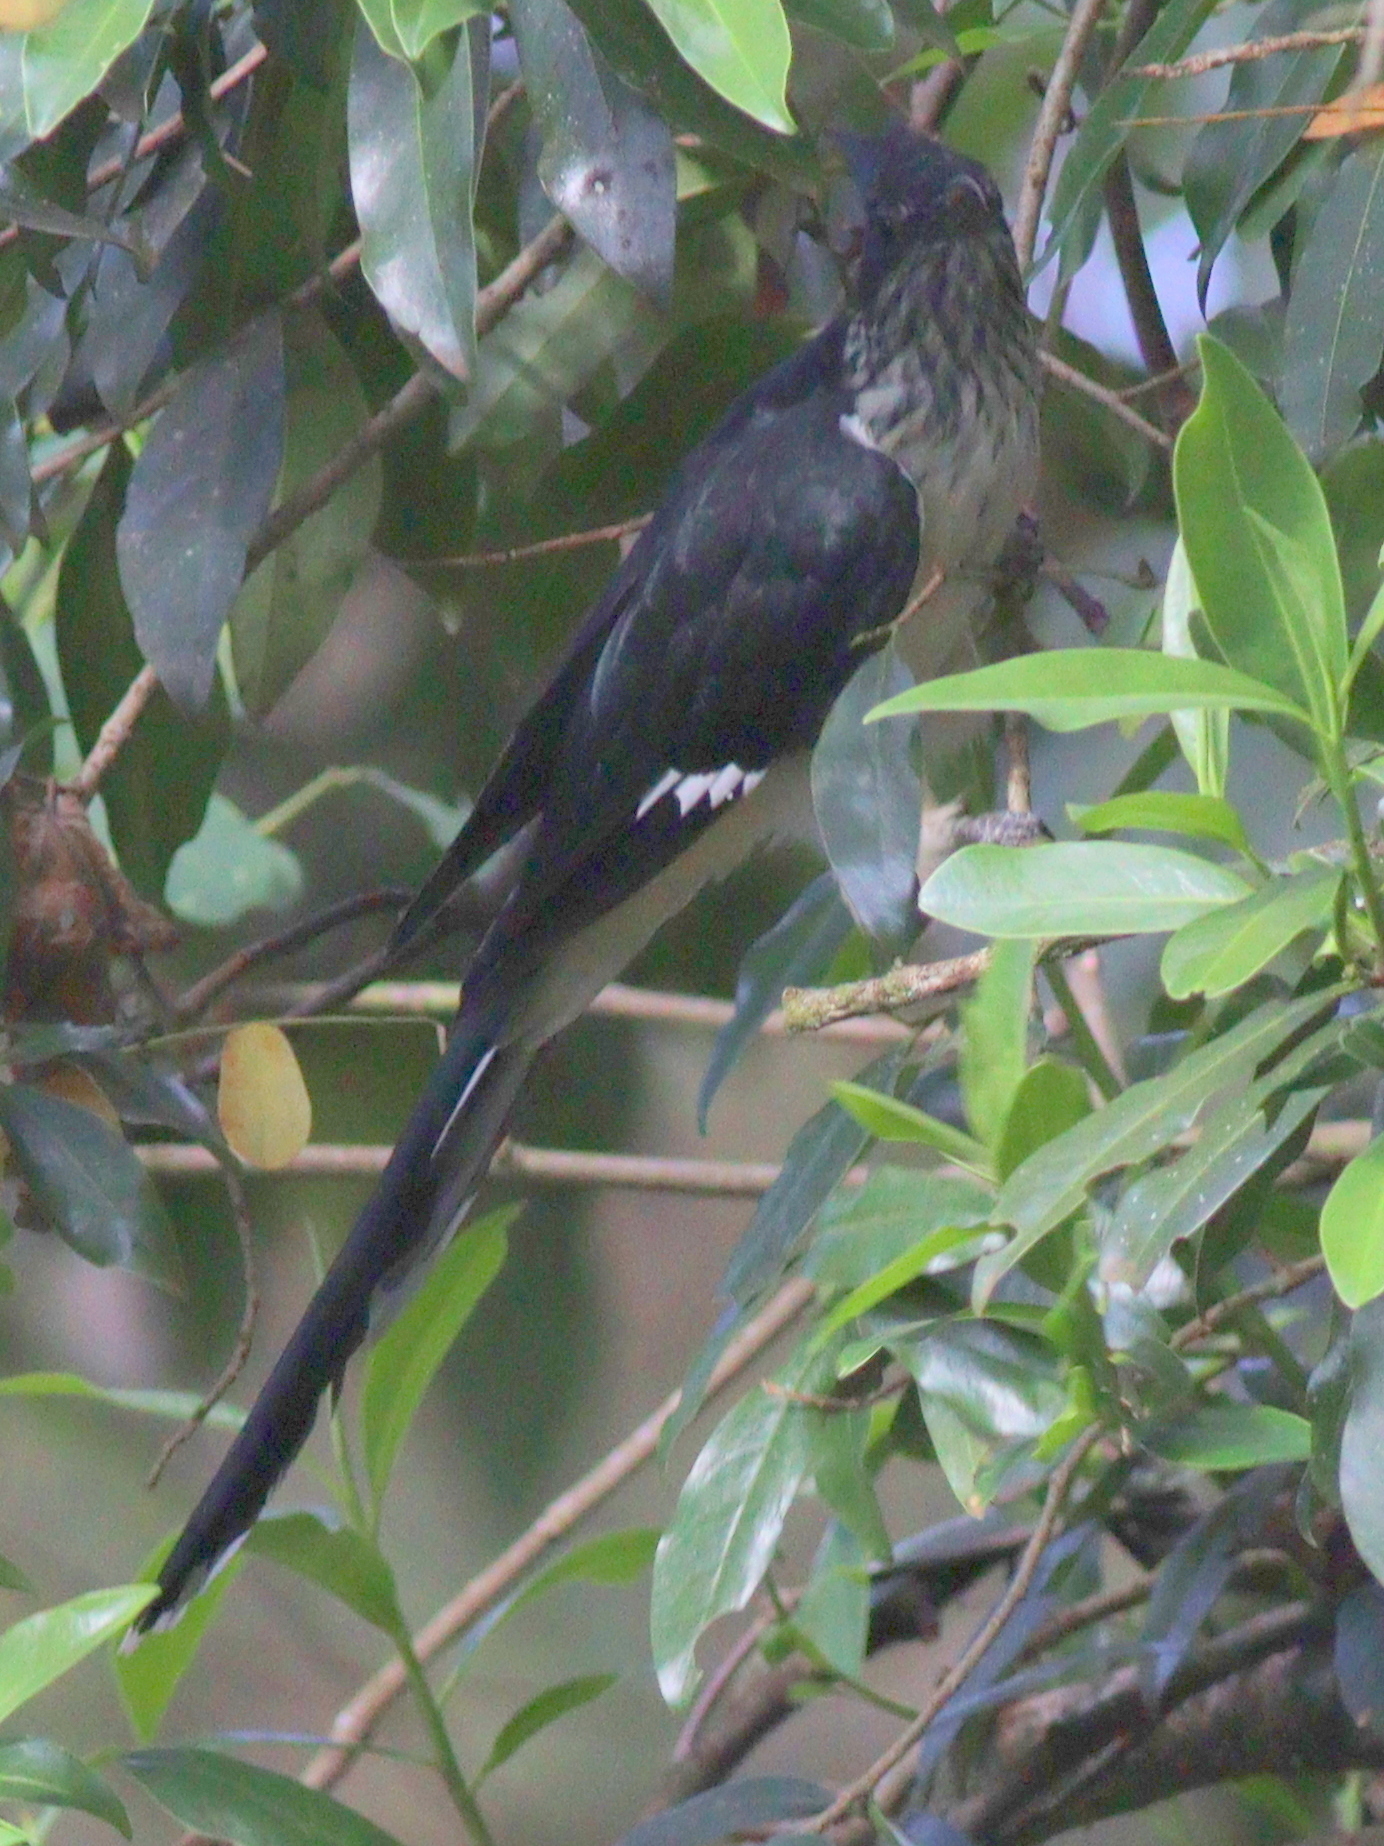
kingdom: Animalia
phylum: Chordata
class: Aves
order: Cuculiformes
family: Cuculidae
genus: Clamator
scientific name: Clamator levaillantii
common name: Levaillant's cuckoo
